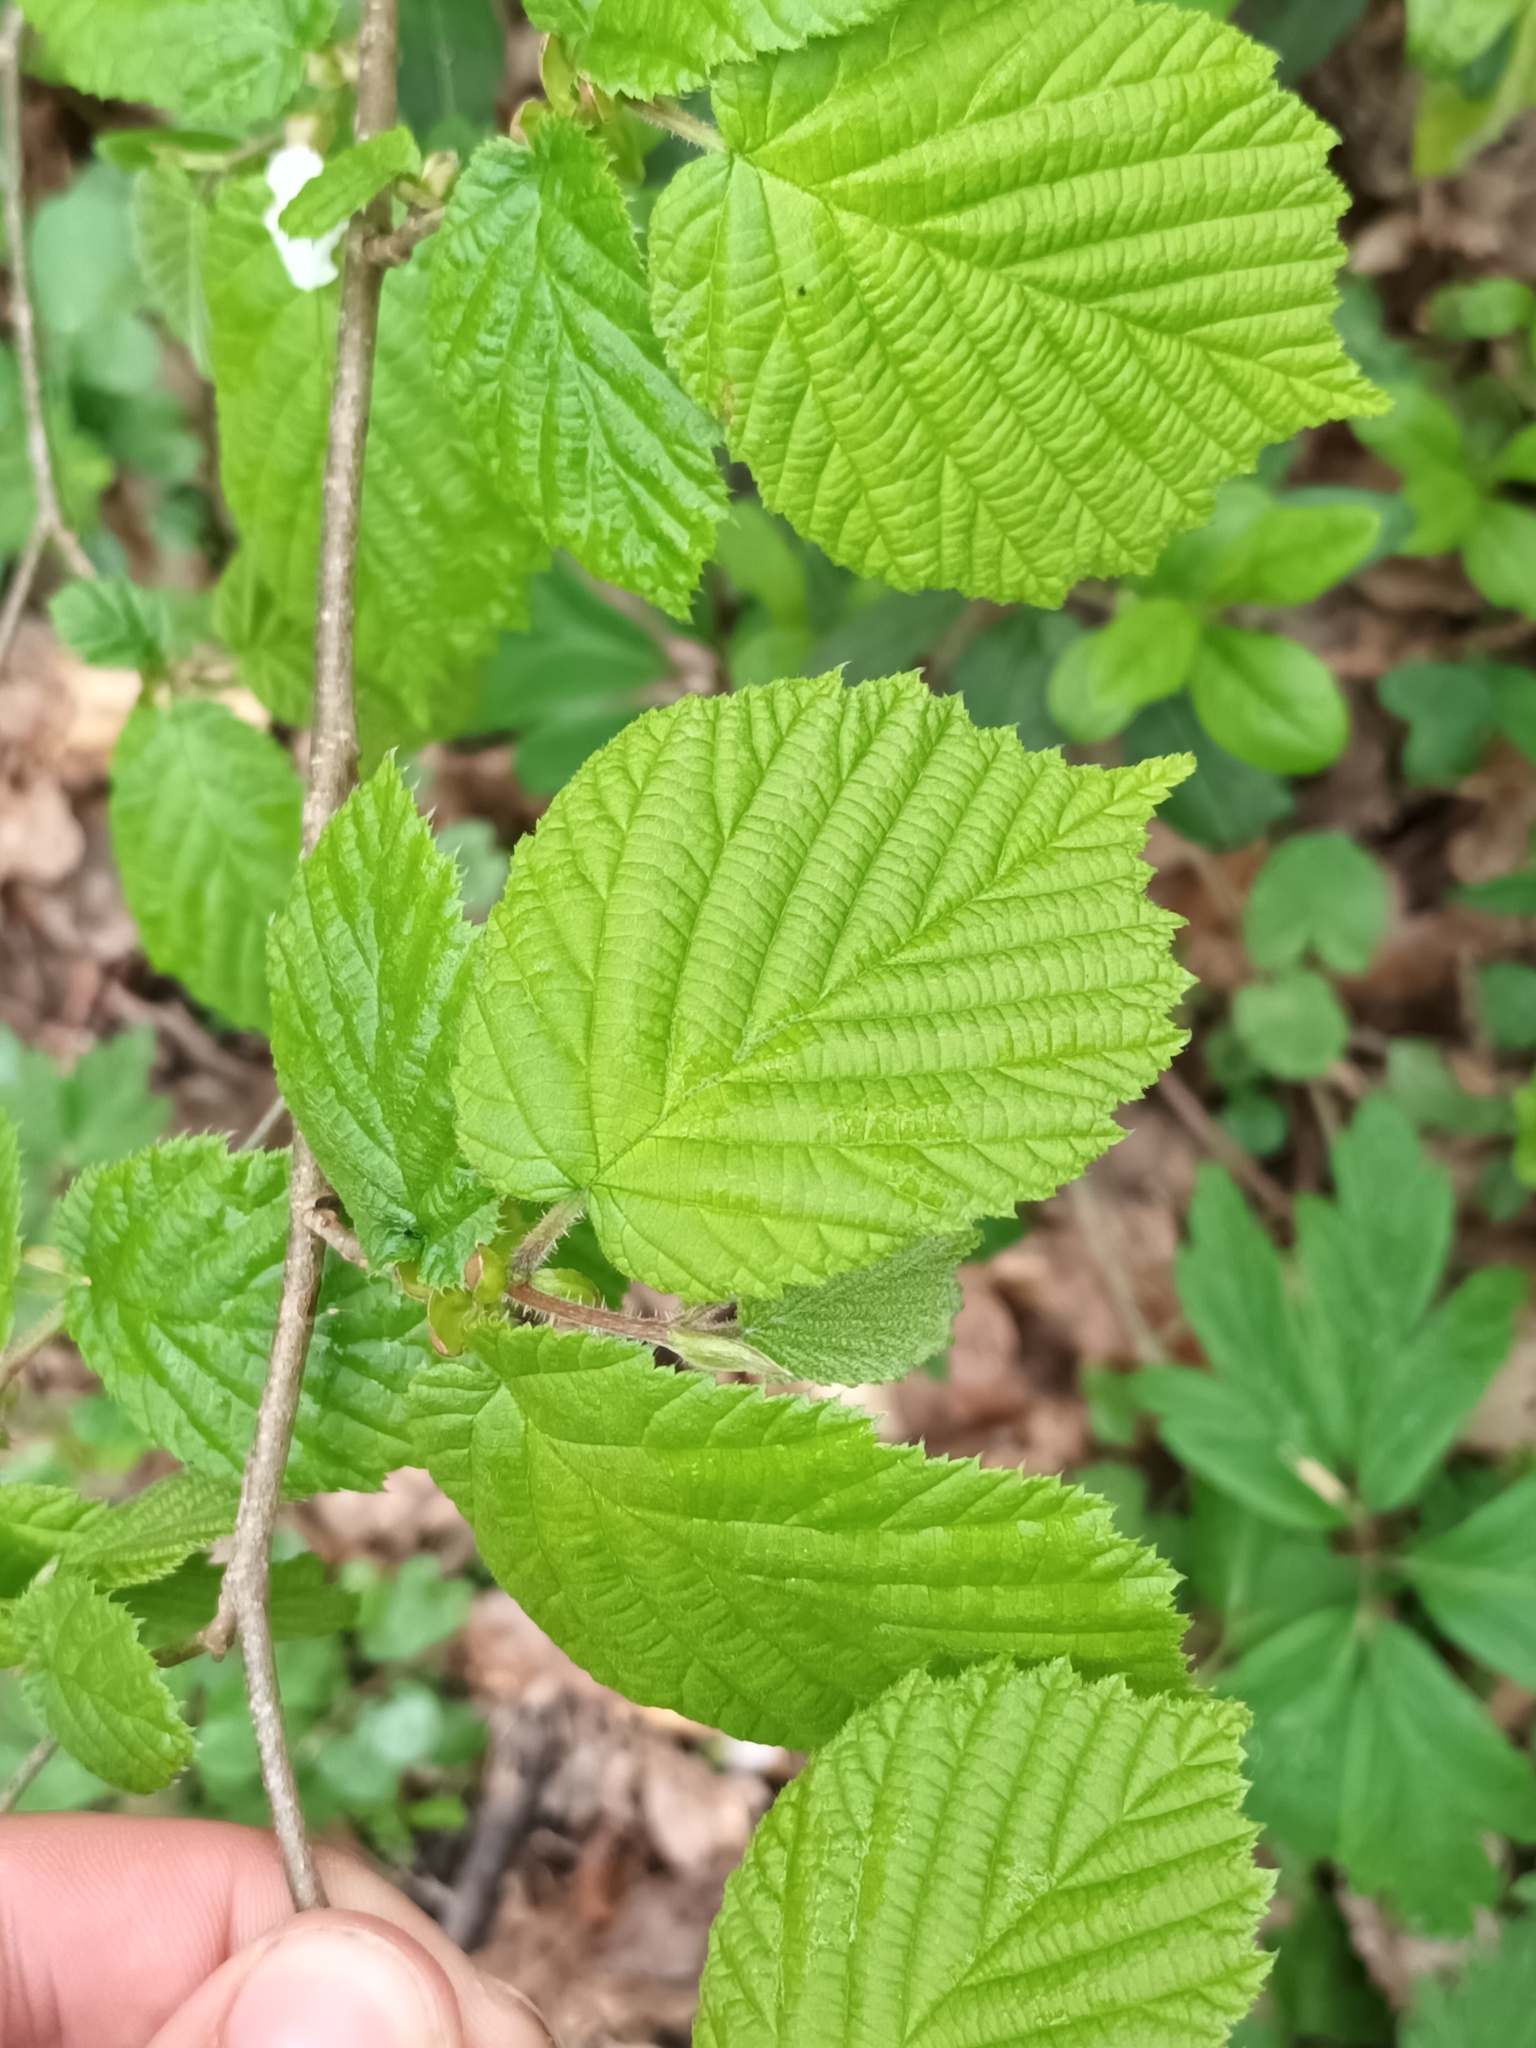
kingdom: Plantae
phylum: Tracheophyta
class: Magnoliopsida
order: Fagales
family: Betulaceae
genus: Corylus
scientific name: Corylus avellana
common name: European hazel
